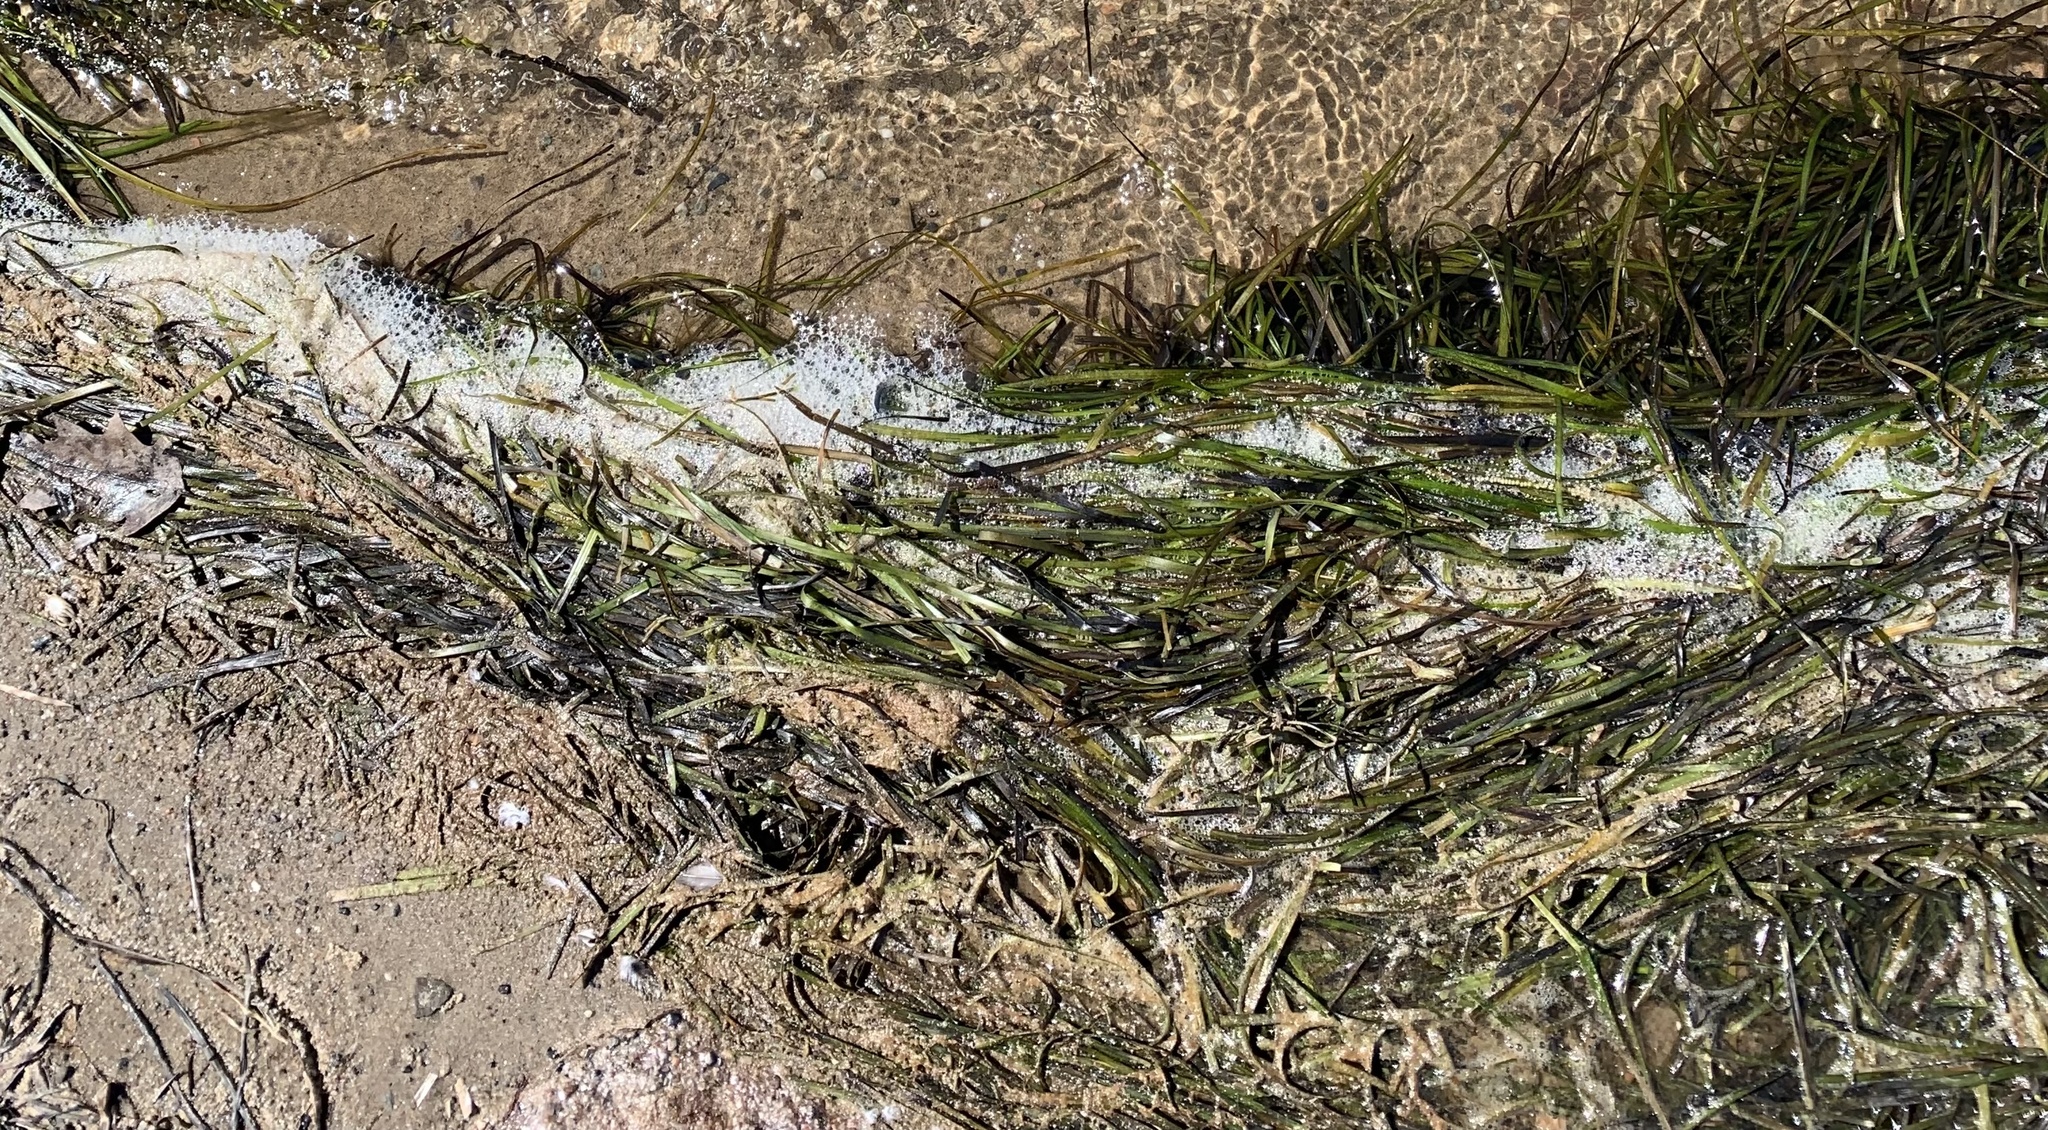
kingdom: Plantae
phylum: Tracheophyta
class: Liliopsida
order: Alismatales
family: Zosteraceae
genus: Zostera
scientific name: Zostera marina
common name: Eelgrass
